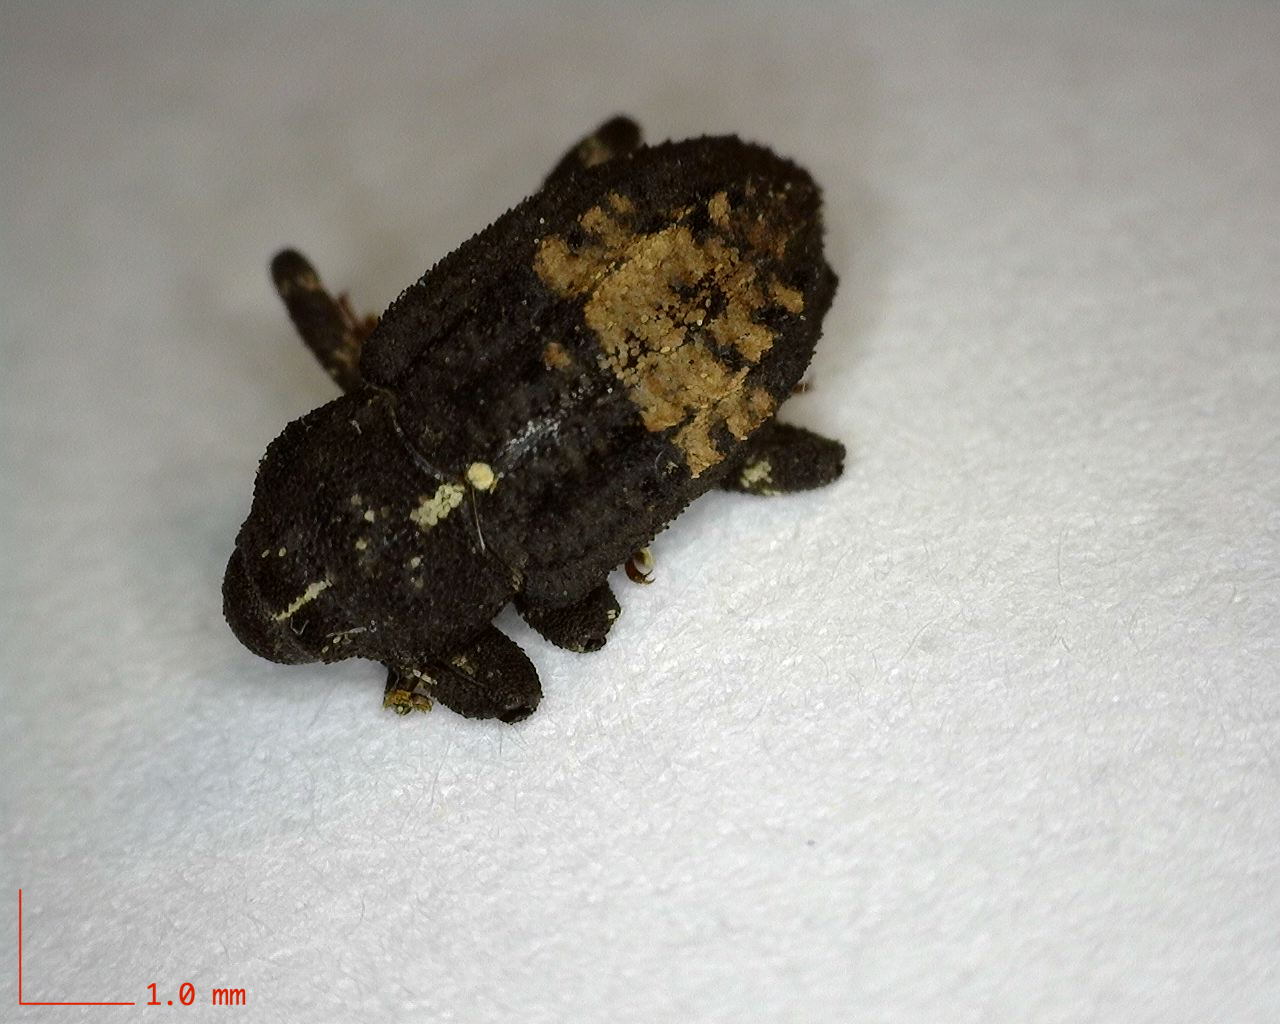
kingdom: Animalia
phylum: Arthropoda
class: Insecta
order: Coleoptera
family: Curculionidae
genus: Cophes
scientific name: Cophes obtentus
